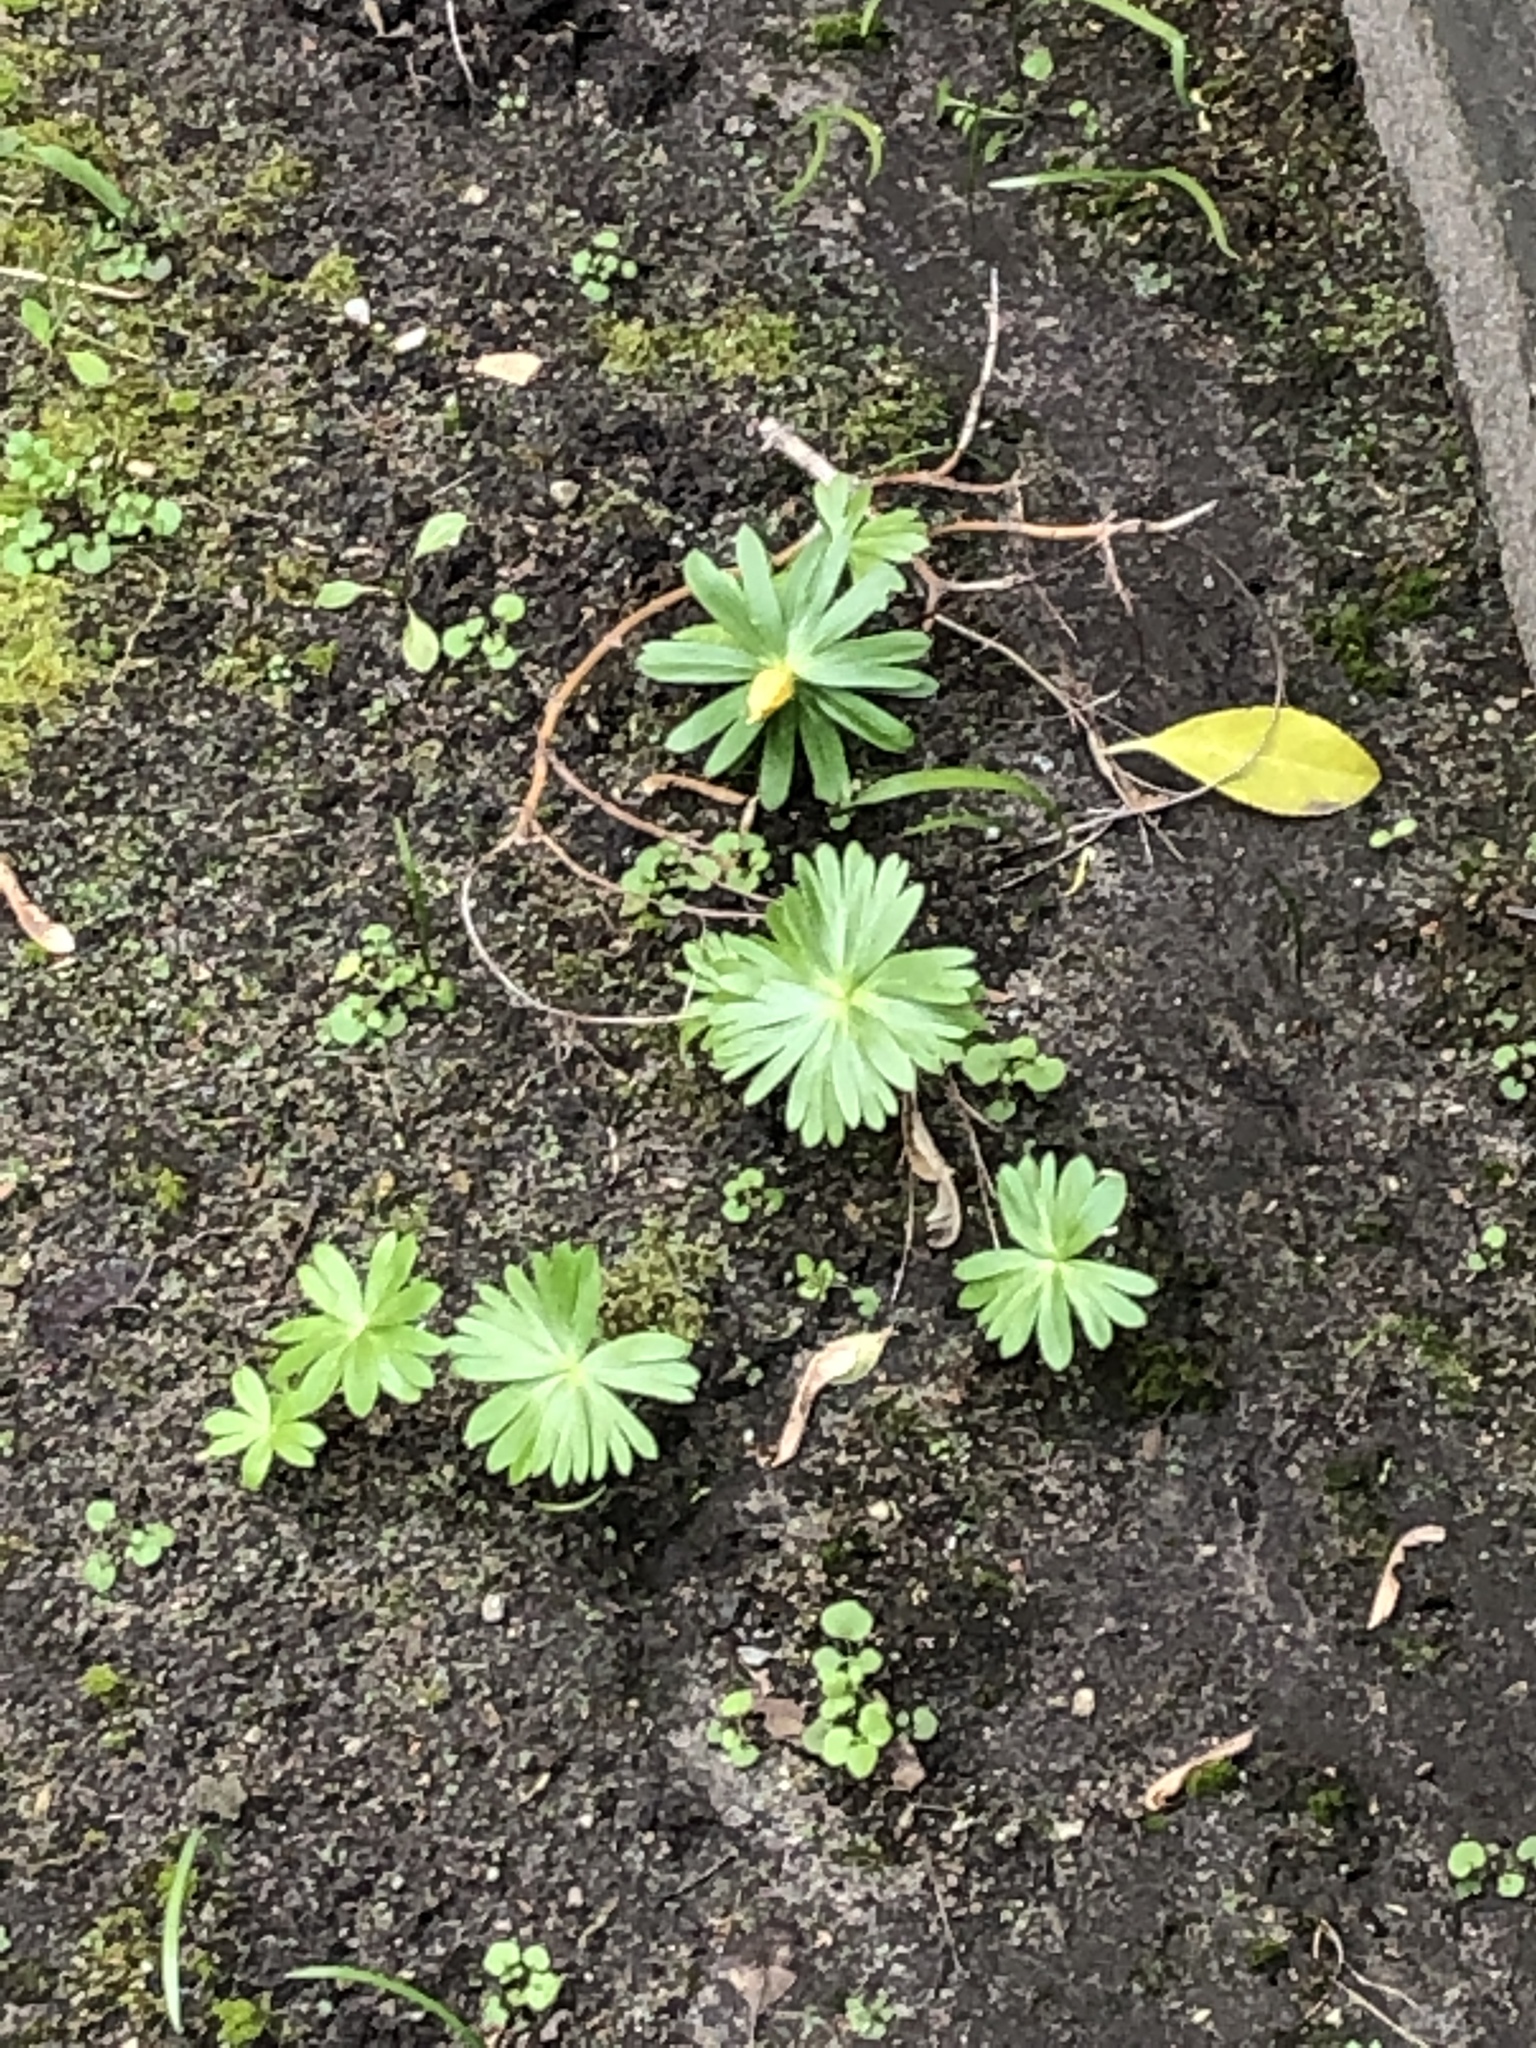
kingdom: Plantae
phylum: Tracheophyta
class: Magnoliopsida
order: Ranunculales
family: Ranunculaceae
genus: Eranthis
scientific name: Eranthis hyemalis
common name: Winter aconite
